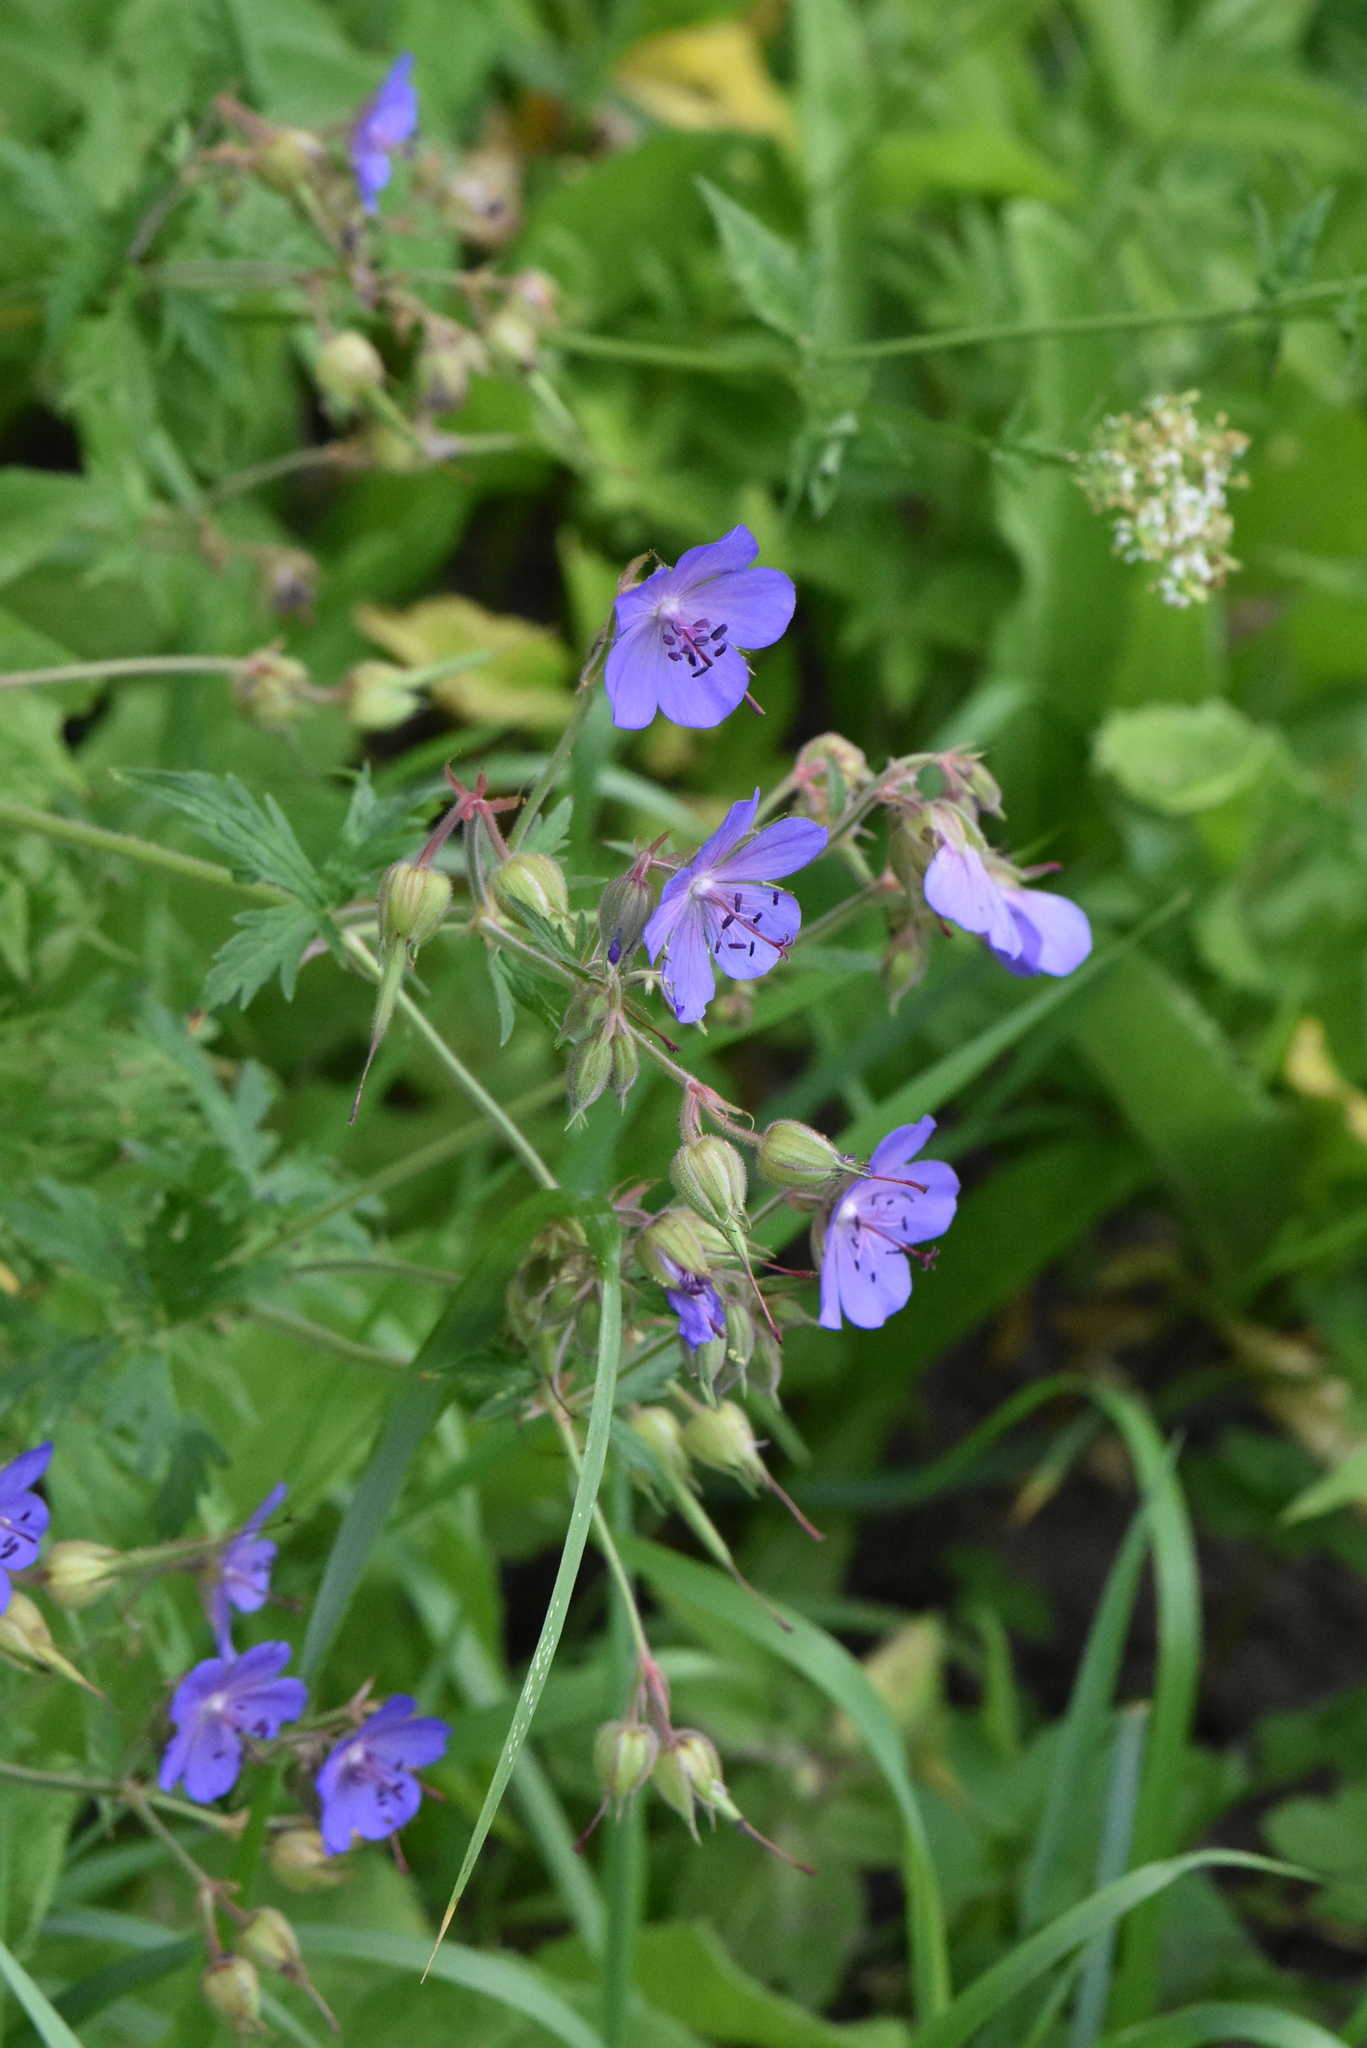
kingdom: Plantae
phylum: Tracheophyta
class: Magnoliopsida
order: Geraniales
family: Geraniaceae
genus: Geranium
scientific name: Geranium pratense
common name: Meadow crane's-bill
